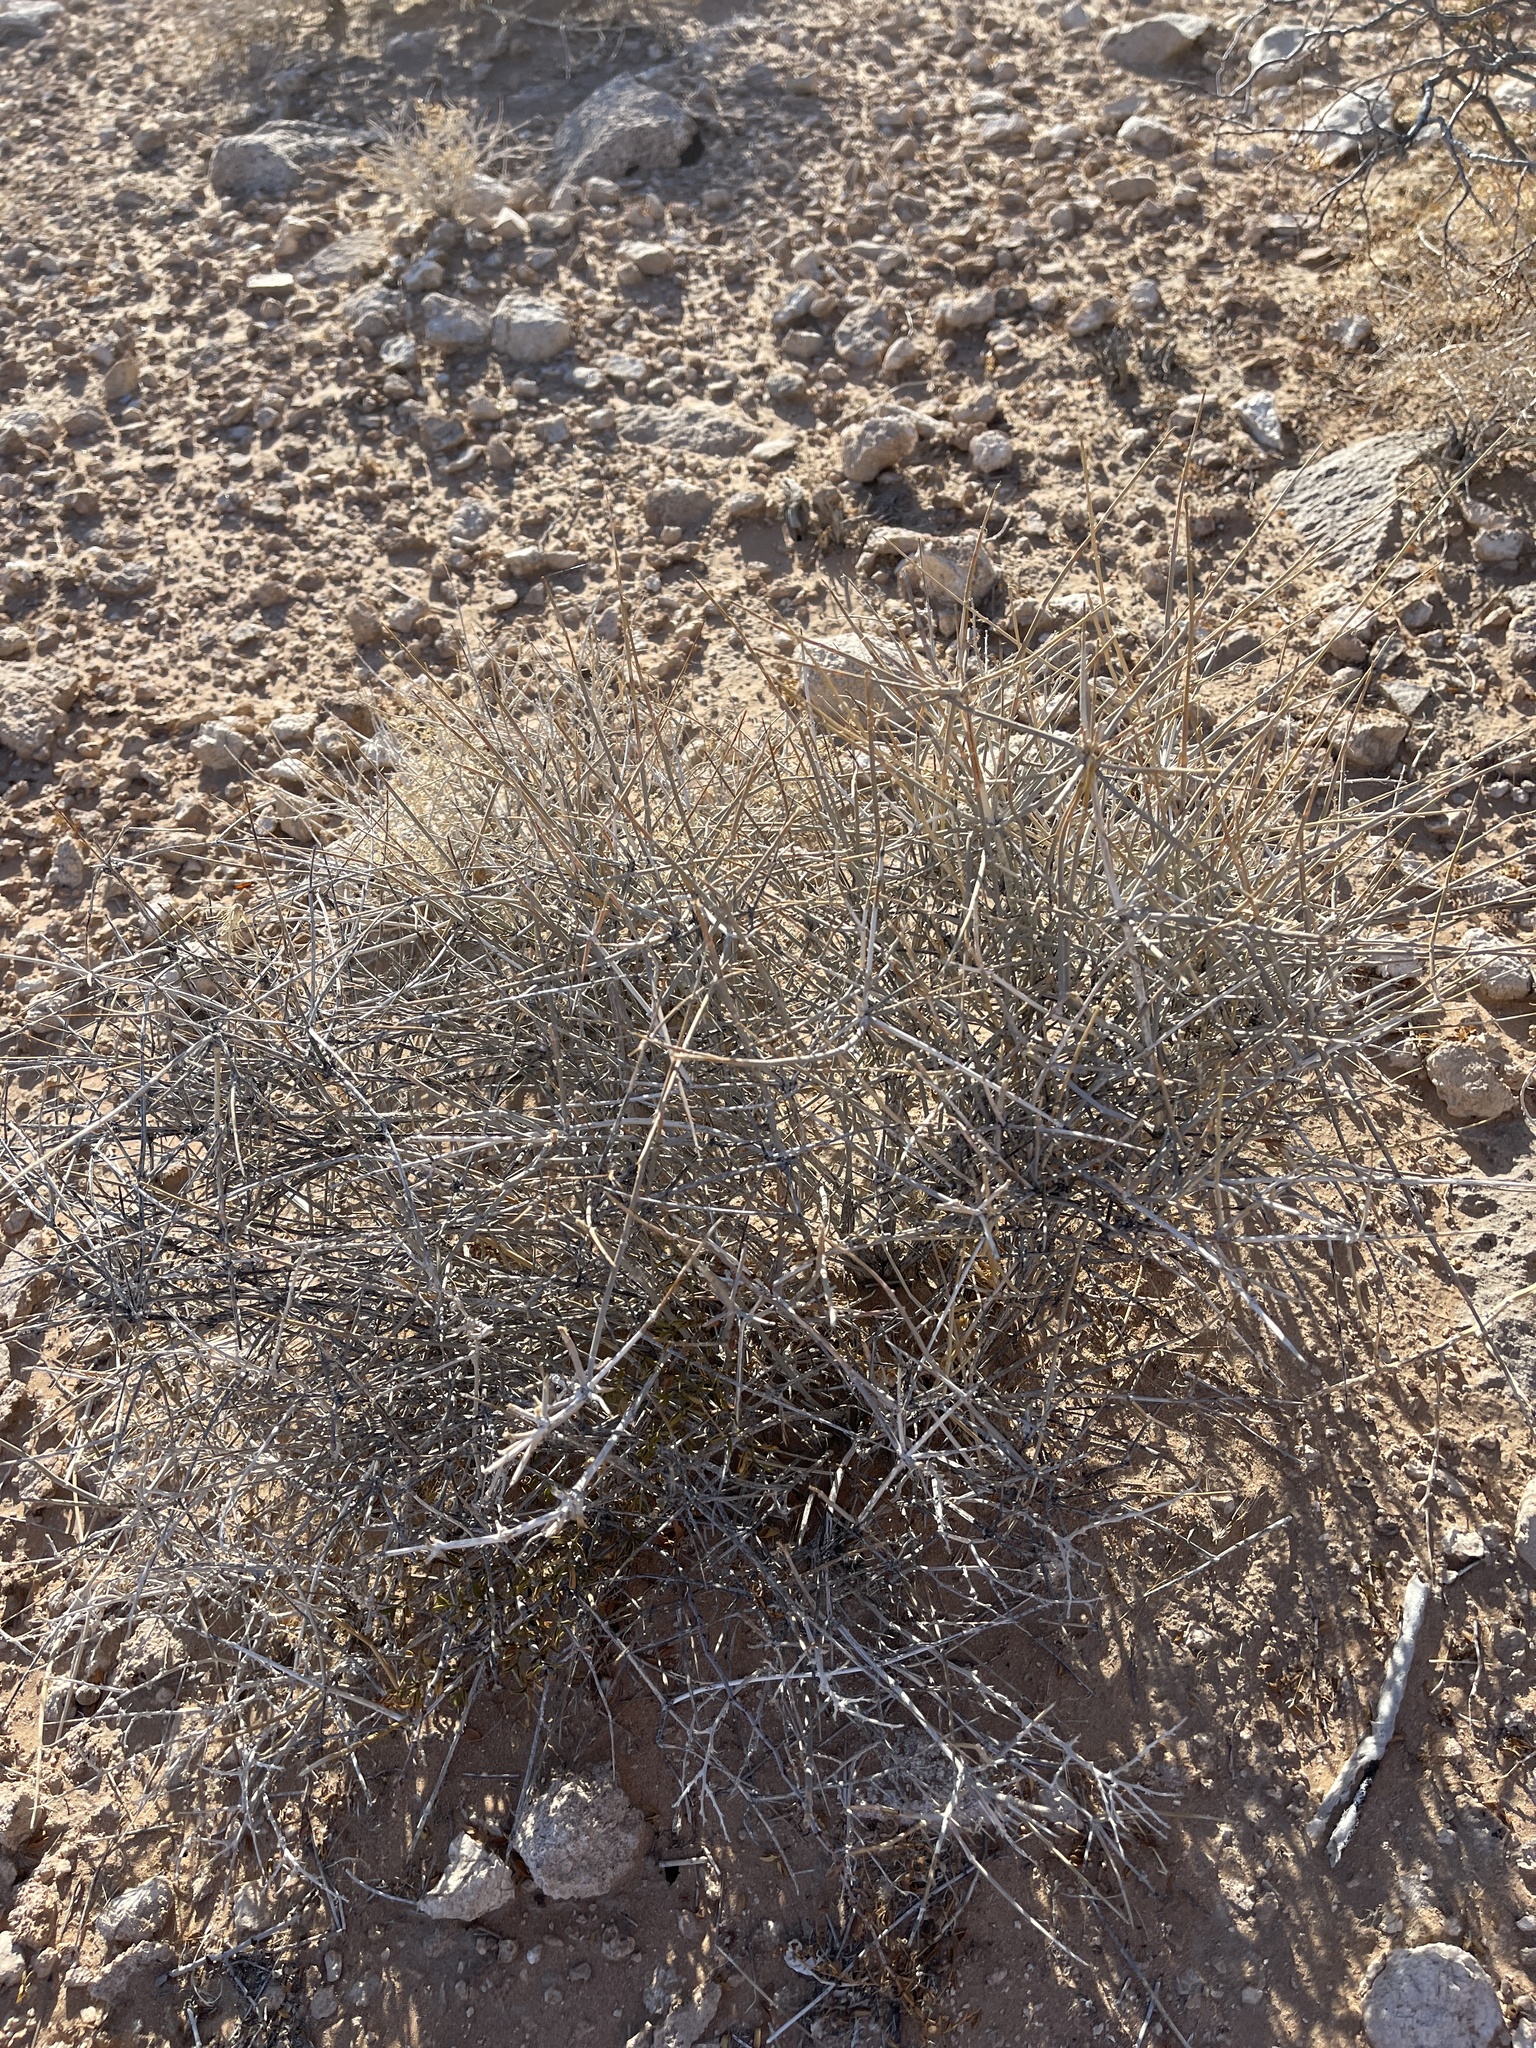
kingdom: Plantae
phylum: Tracheophyta
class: Gnetopsida
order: Ephedrales
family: Ephedraceae
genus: Ephedra
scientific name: Ephedra nevadensis
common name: Gray ephedra
